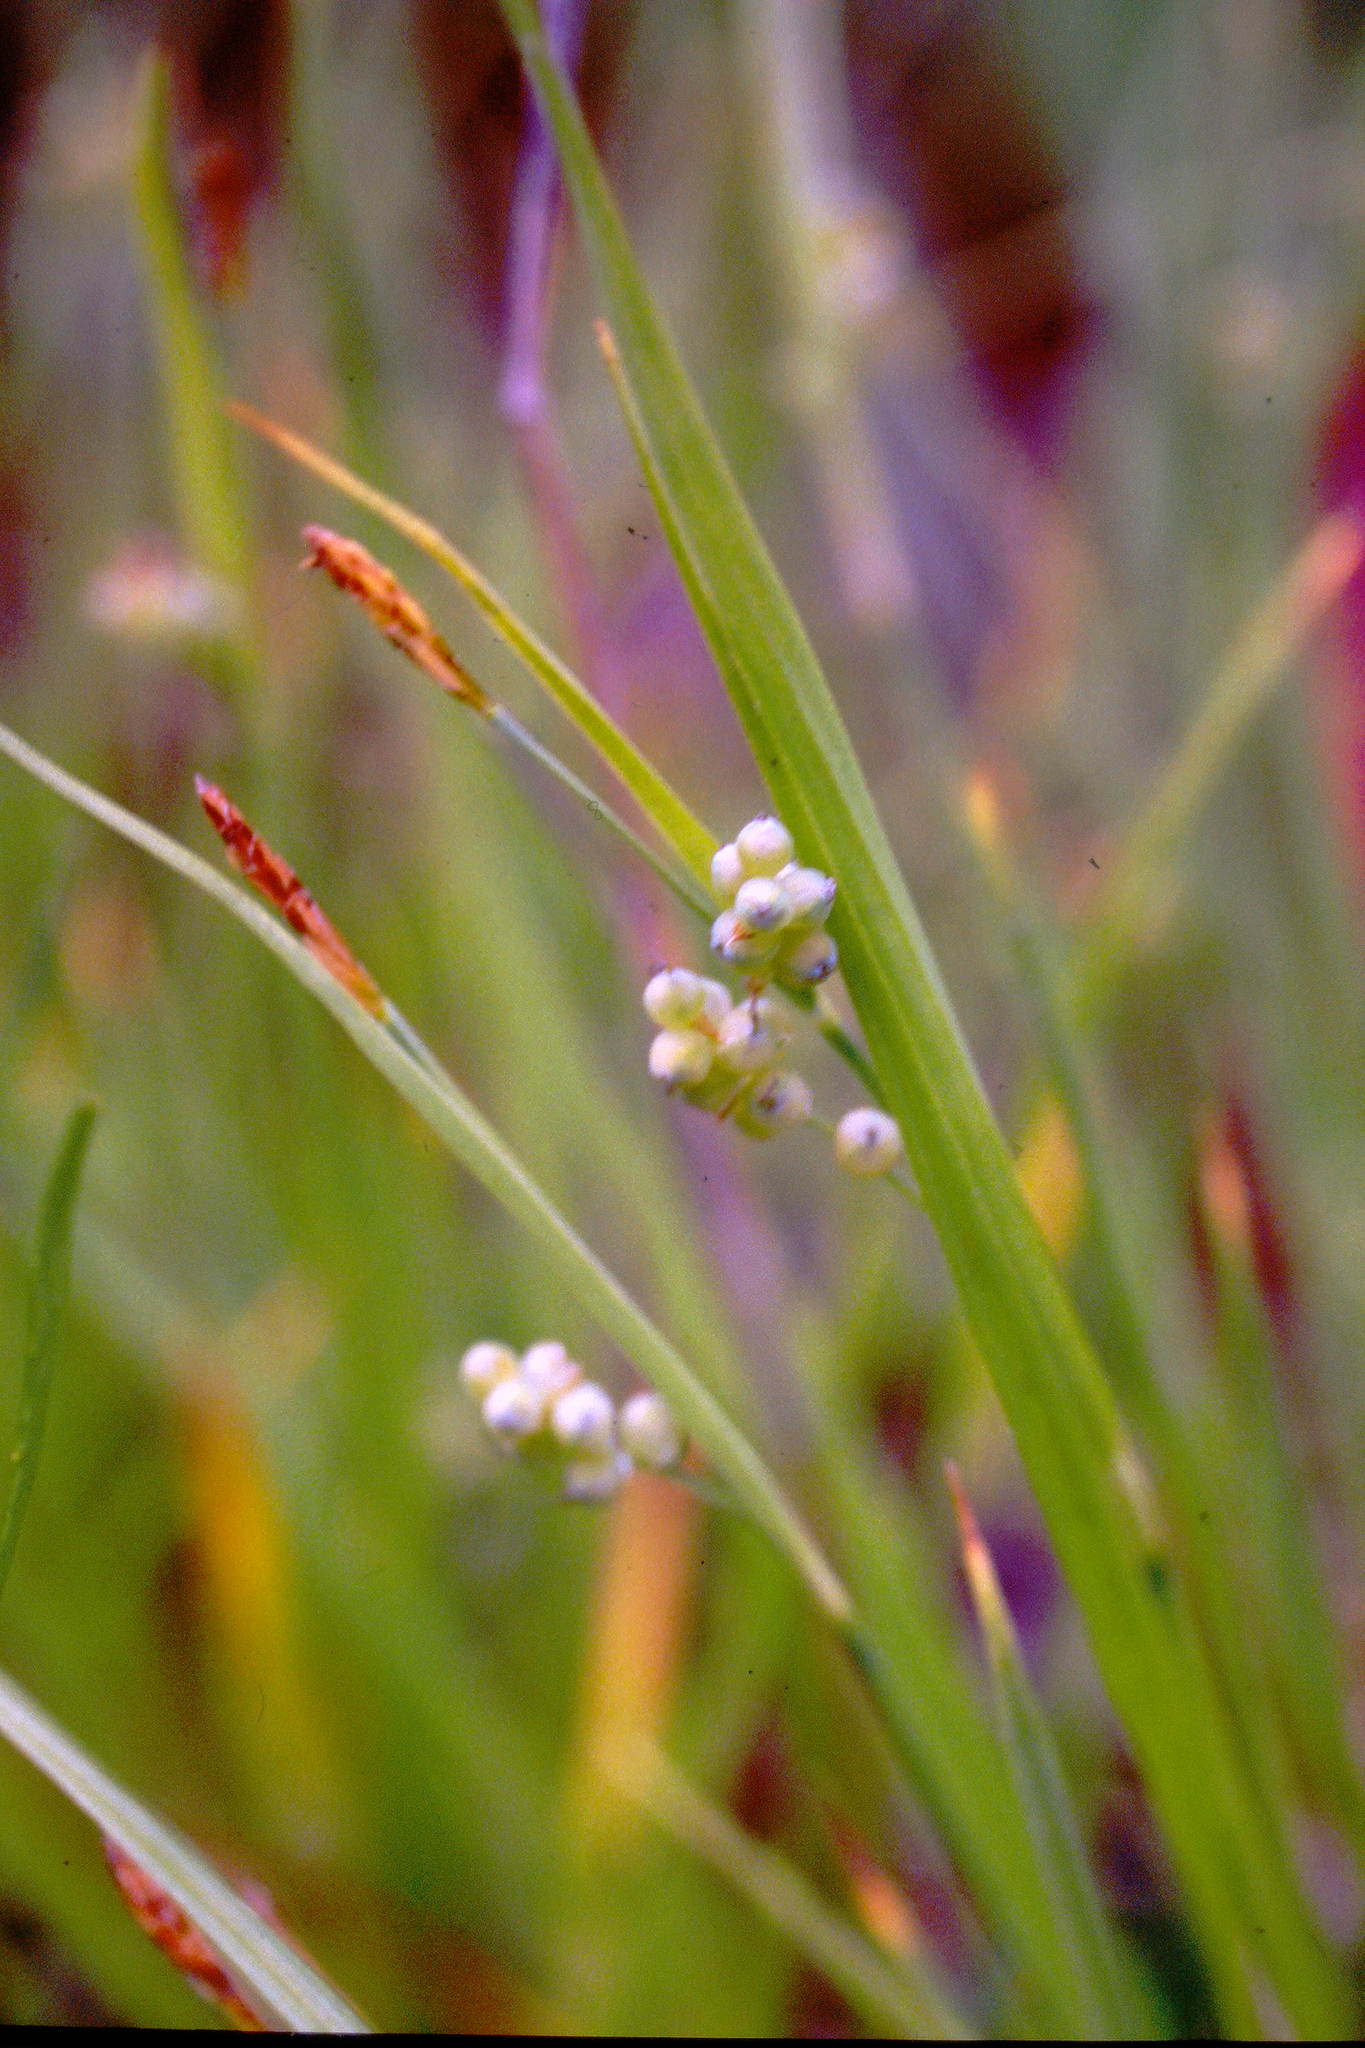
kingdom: Plantae
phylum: Tracheophyta
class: Liliopsida
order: Poales
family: Cyperaceae
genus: Carex
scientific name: Carex aurea
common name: Golden sedge
